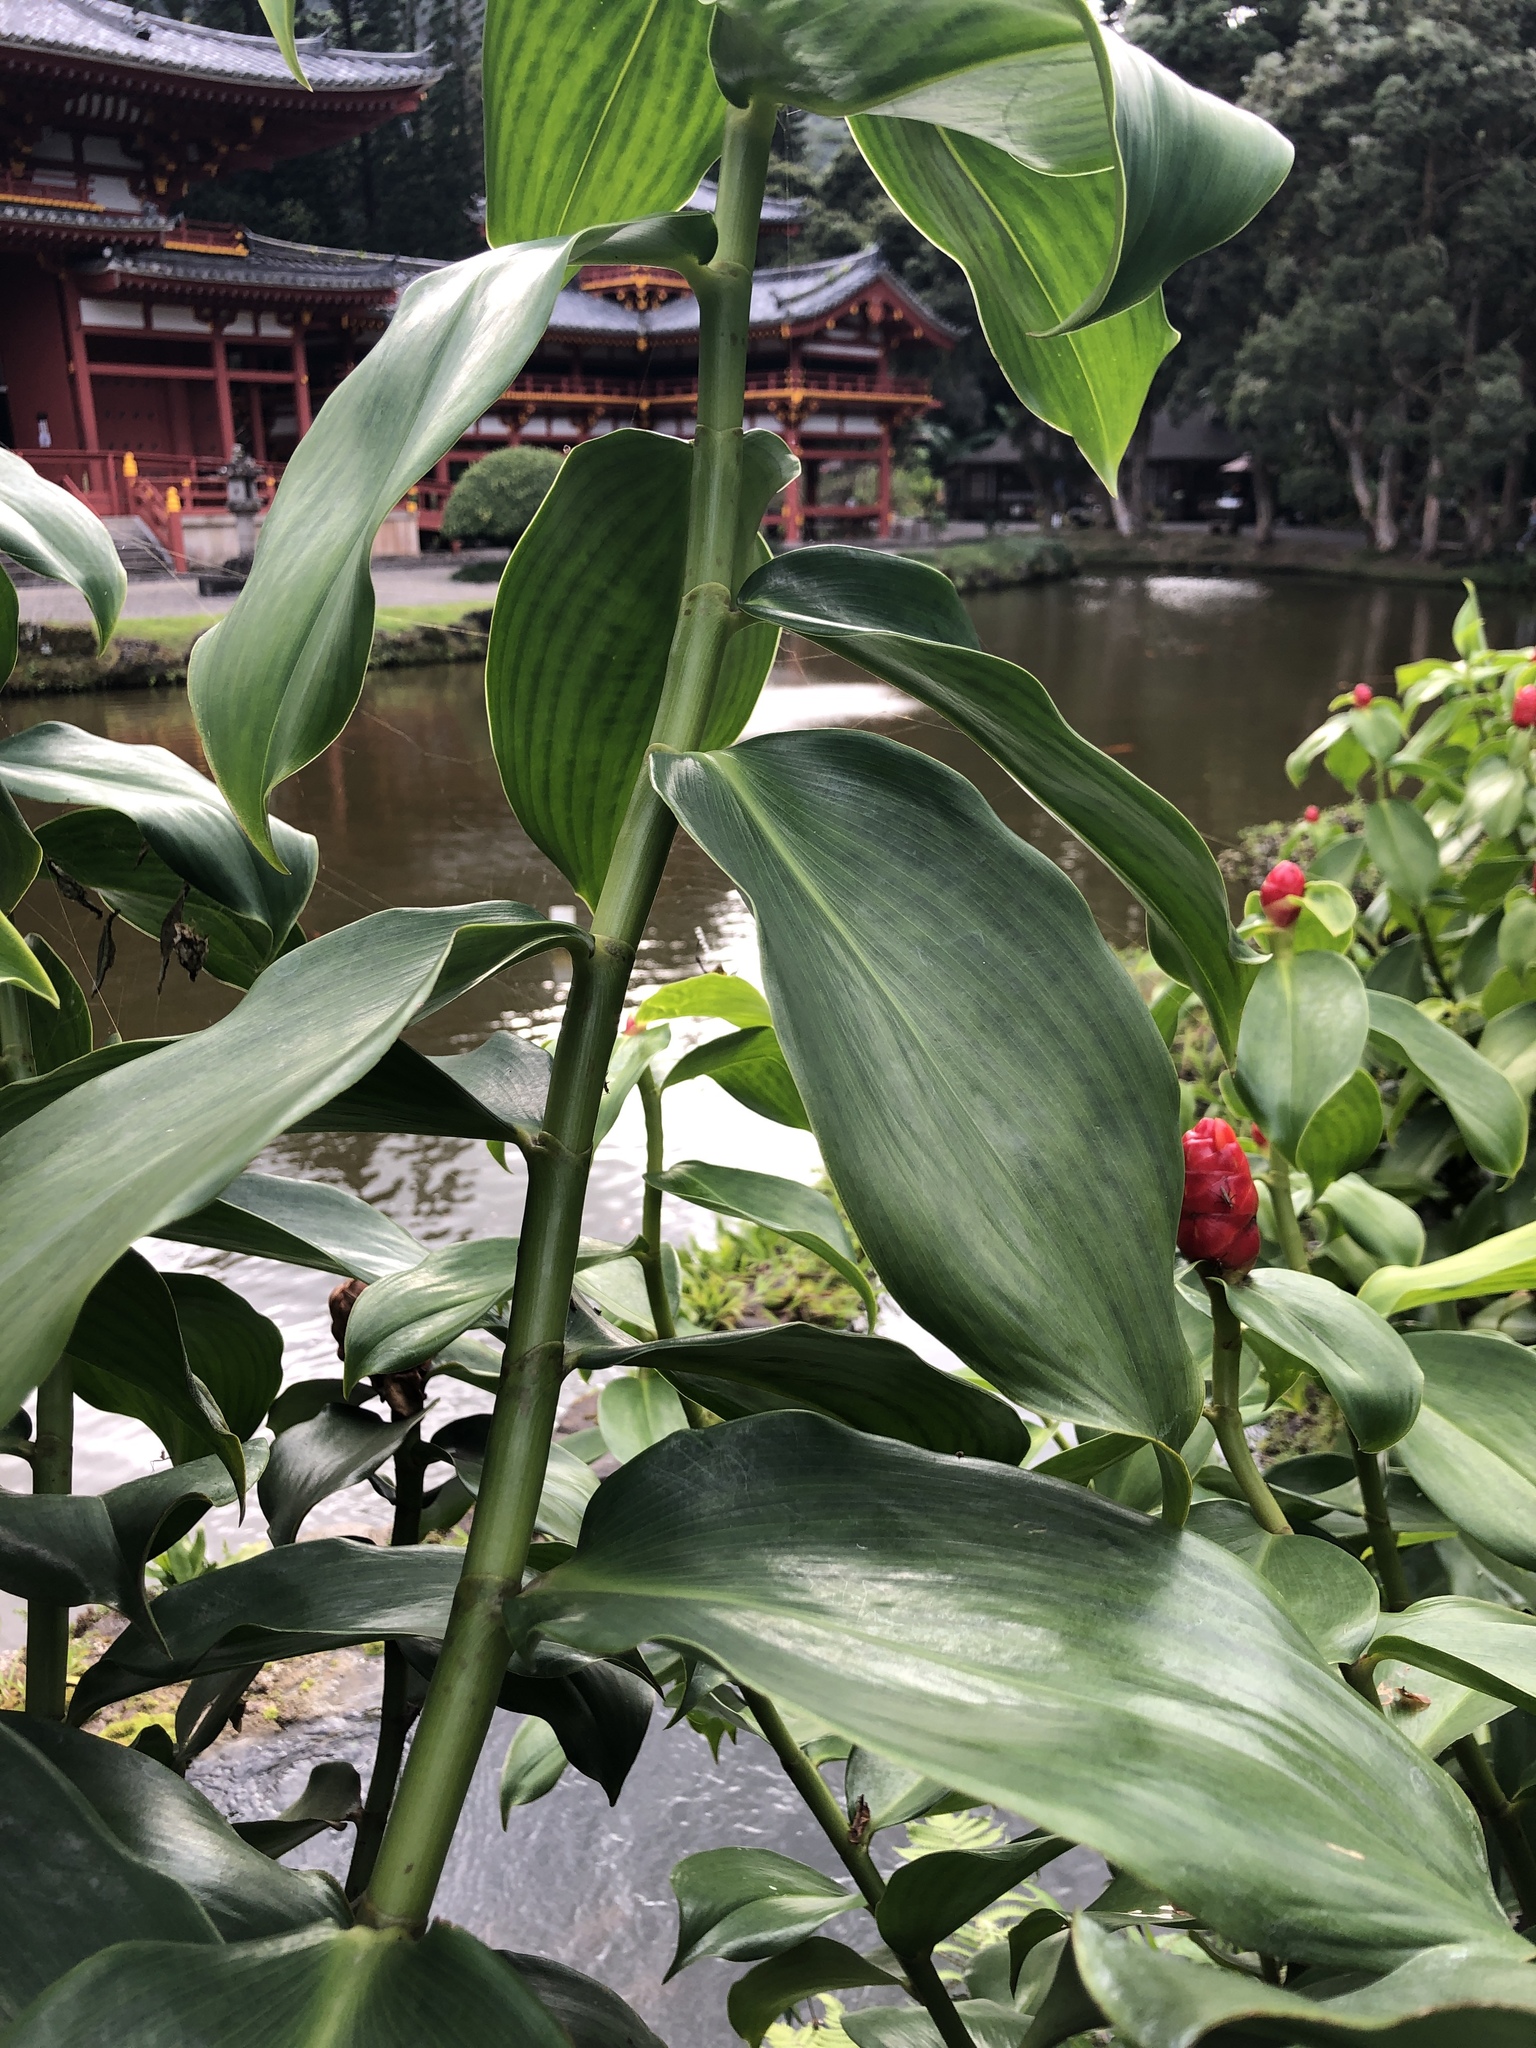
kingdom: Plantae
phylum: Tracheophyta
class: Liliopsida
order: Zingiberales
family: Costaceae
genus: Costus
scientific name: Costus woodsonii
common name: Scarlet spiral-ginger
